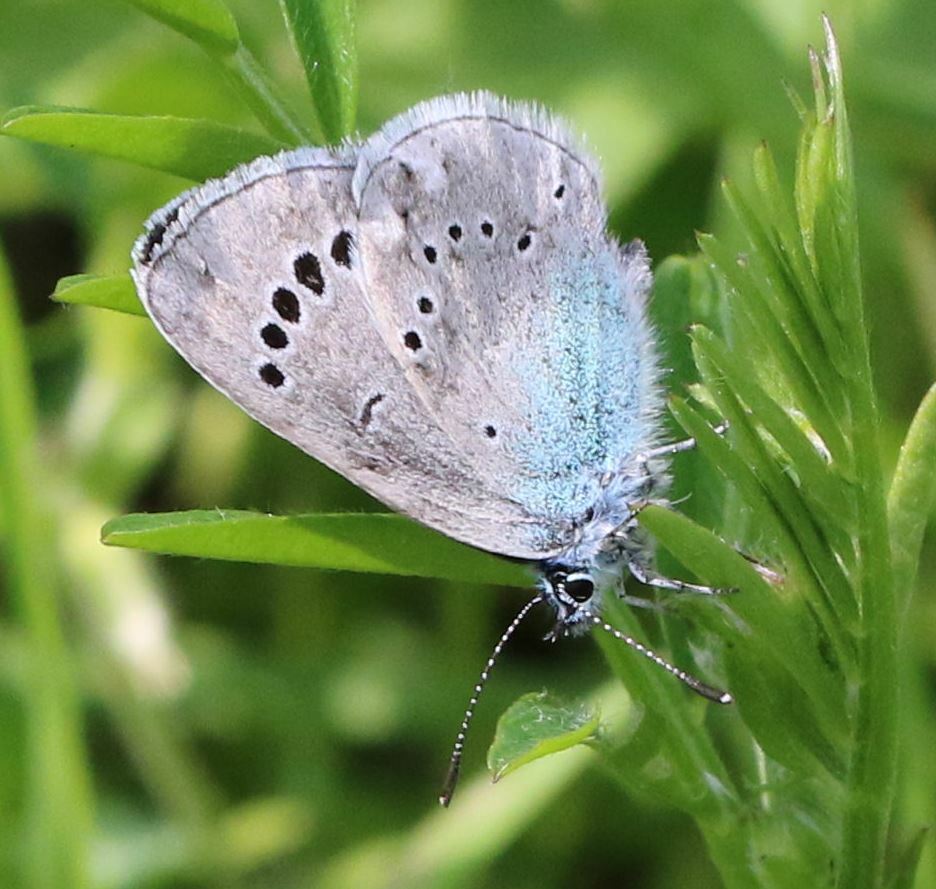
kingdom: Animalia
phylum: Arthropoda
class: Insecta
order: Lepidoptera
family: Lycaenidae
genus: Glaucopsyche
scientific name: Glaucopsyche alexis
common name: Green-underside blue
